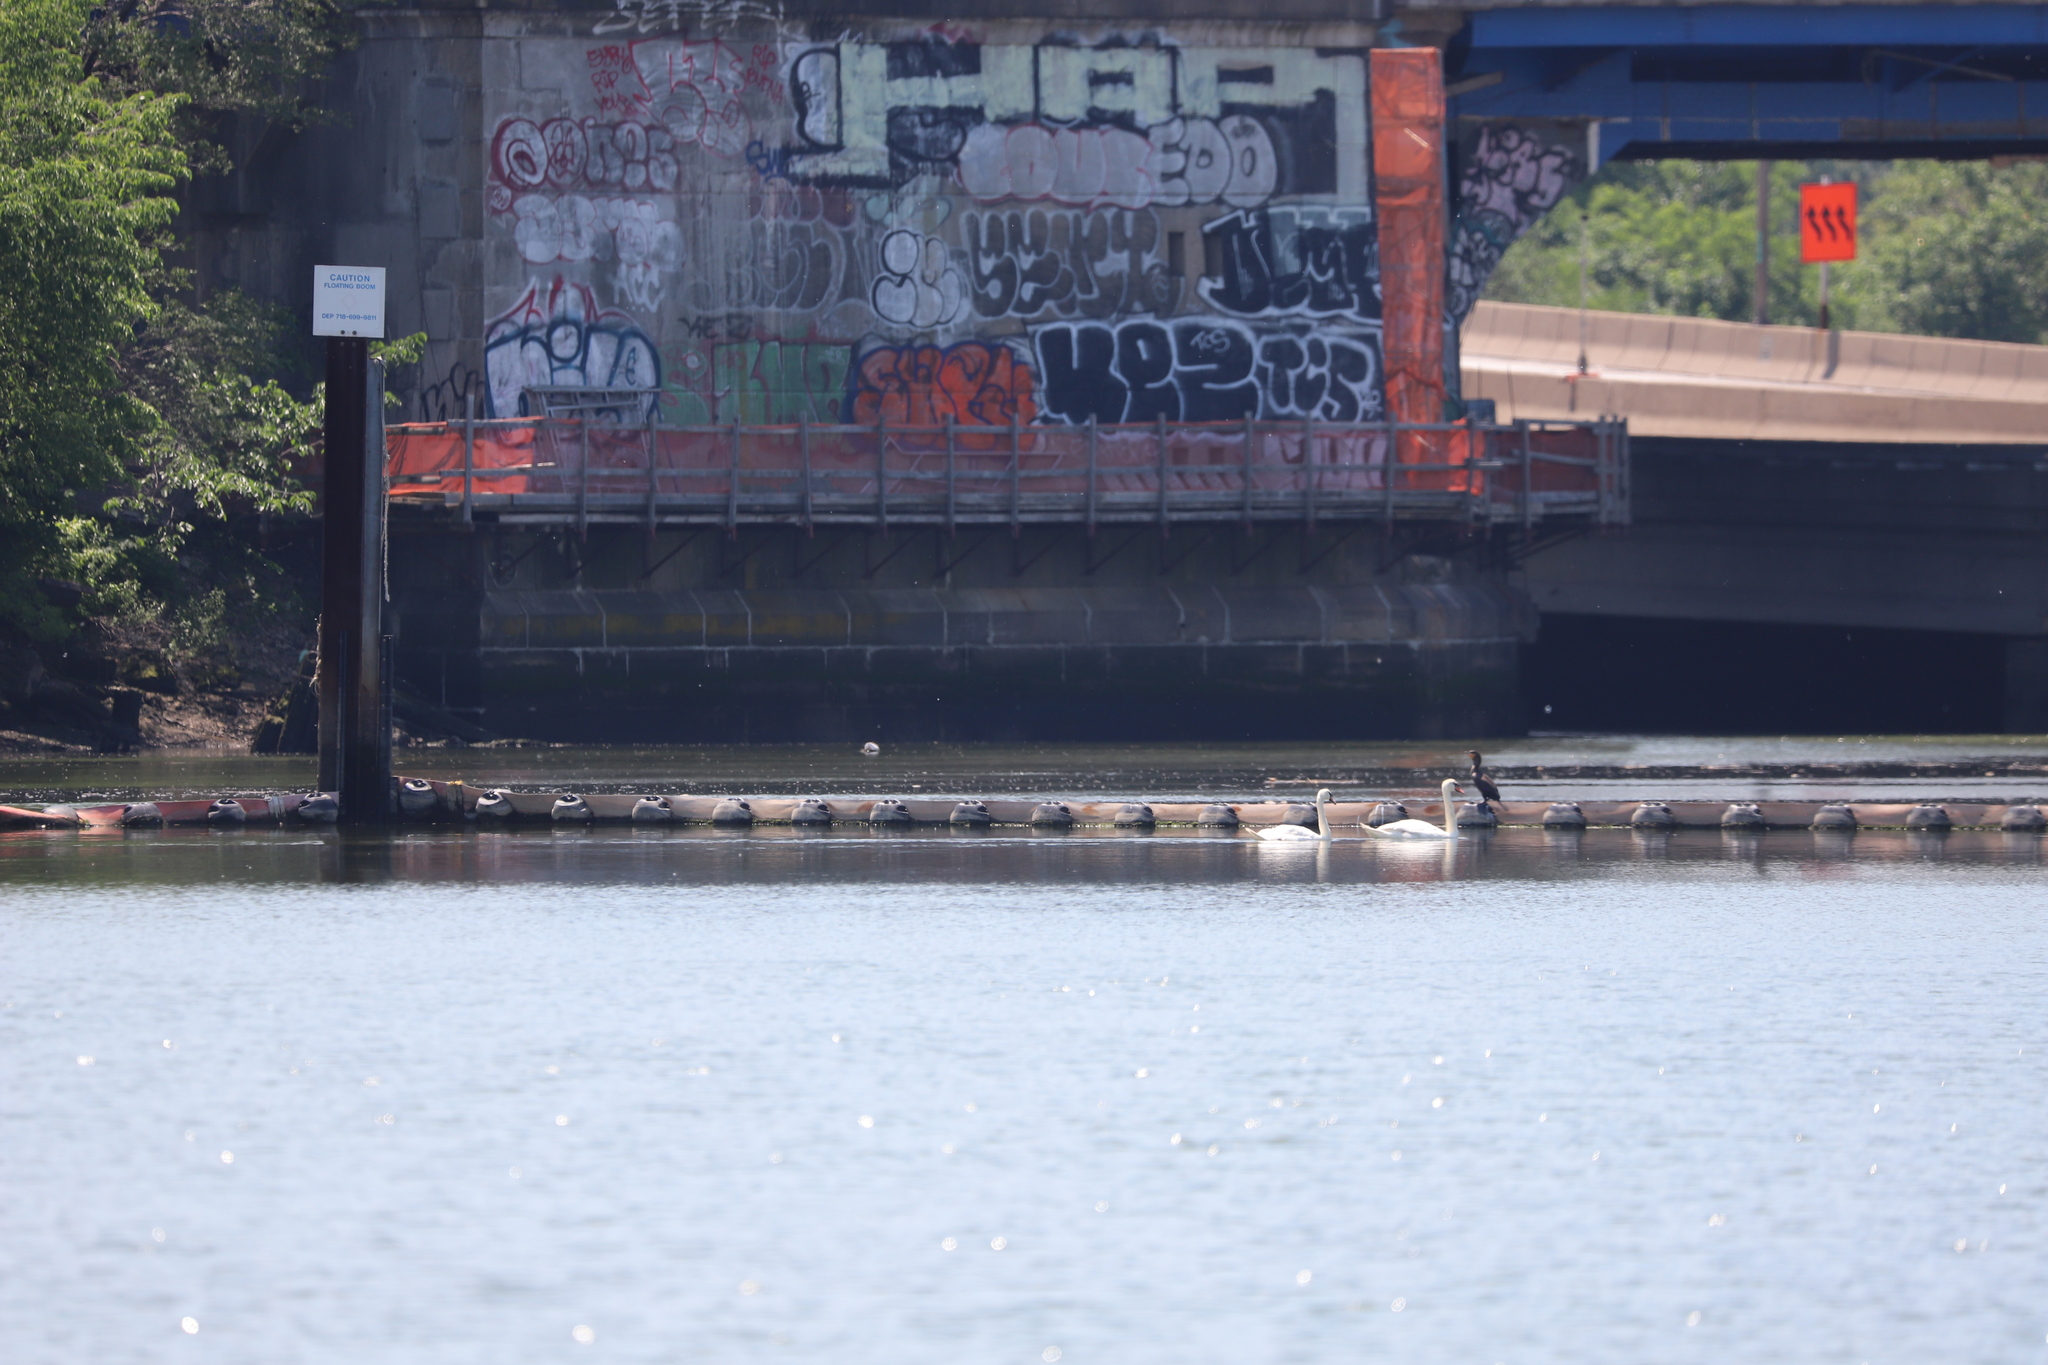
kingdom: Animalia
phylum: Chordata
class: Aves
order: Anseriformes
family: Anatidae
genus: Cygnus
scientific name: Cygnus olor
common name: Mute swan
